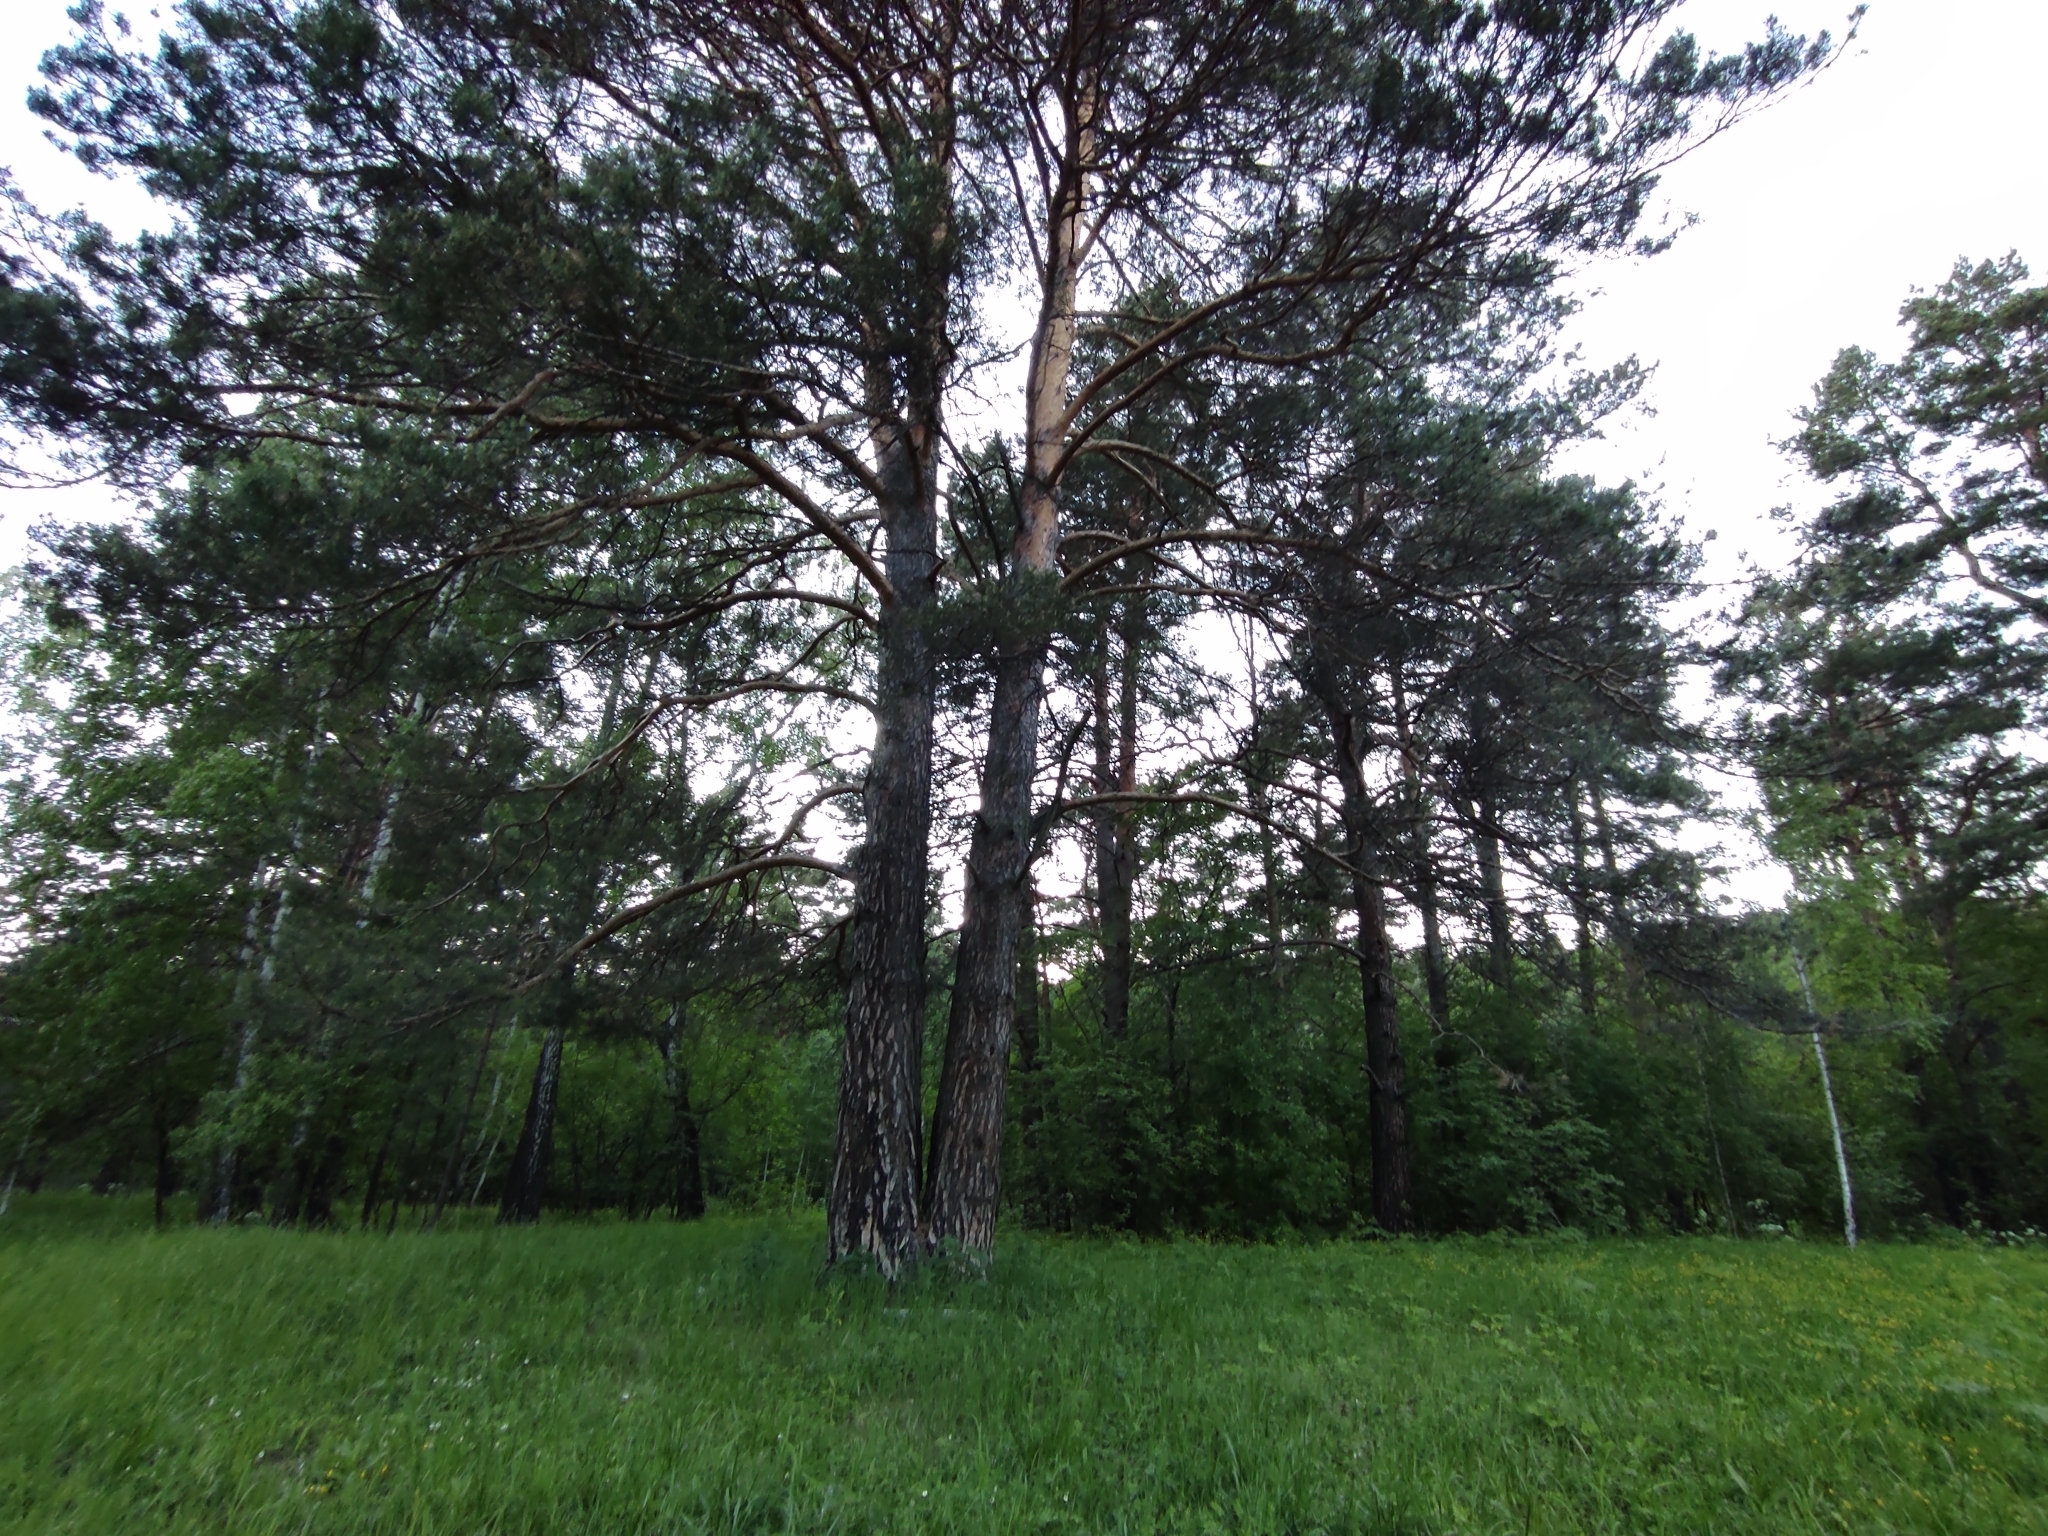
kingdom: Plantae
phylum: Tracheophyta
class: Pinopsida
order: Pinales
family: Pinaceae
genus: Pinus
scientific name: Pinus sylvestris
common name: Scots pine
